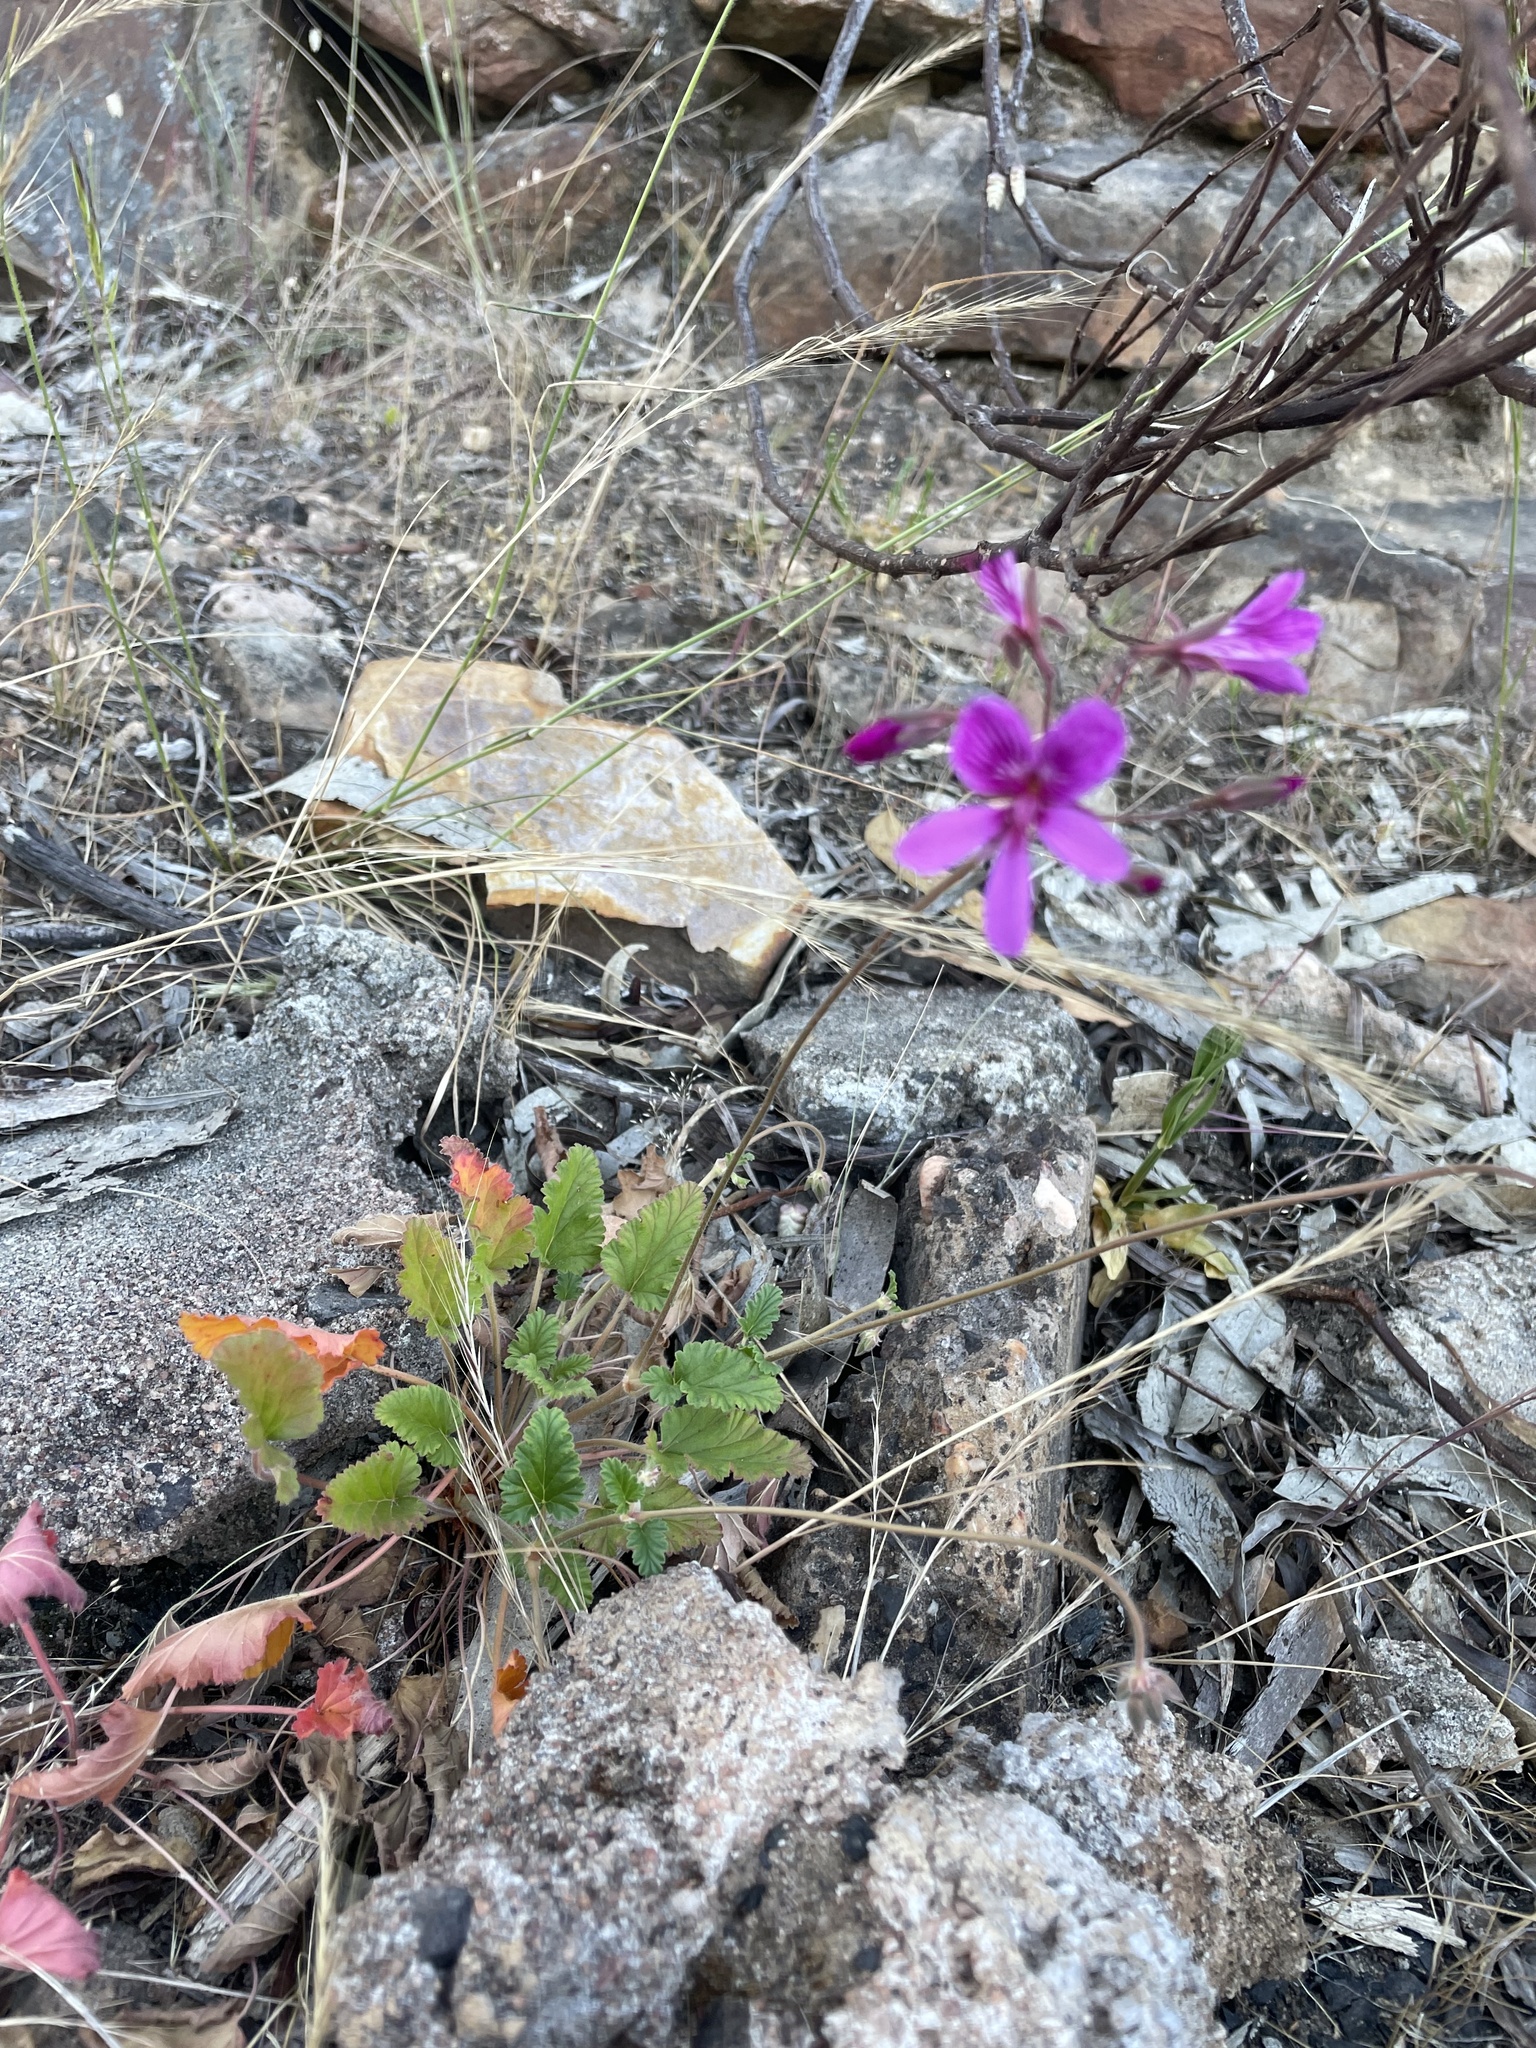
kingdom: Plantae
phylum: Tracheophyta
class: Magnoliopsida
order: Geraniales
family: Geraniaceae
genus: Pelargonium
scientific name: Pelargonium rodneyanum
